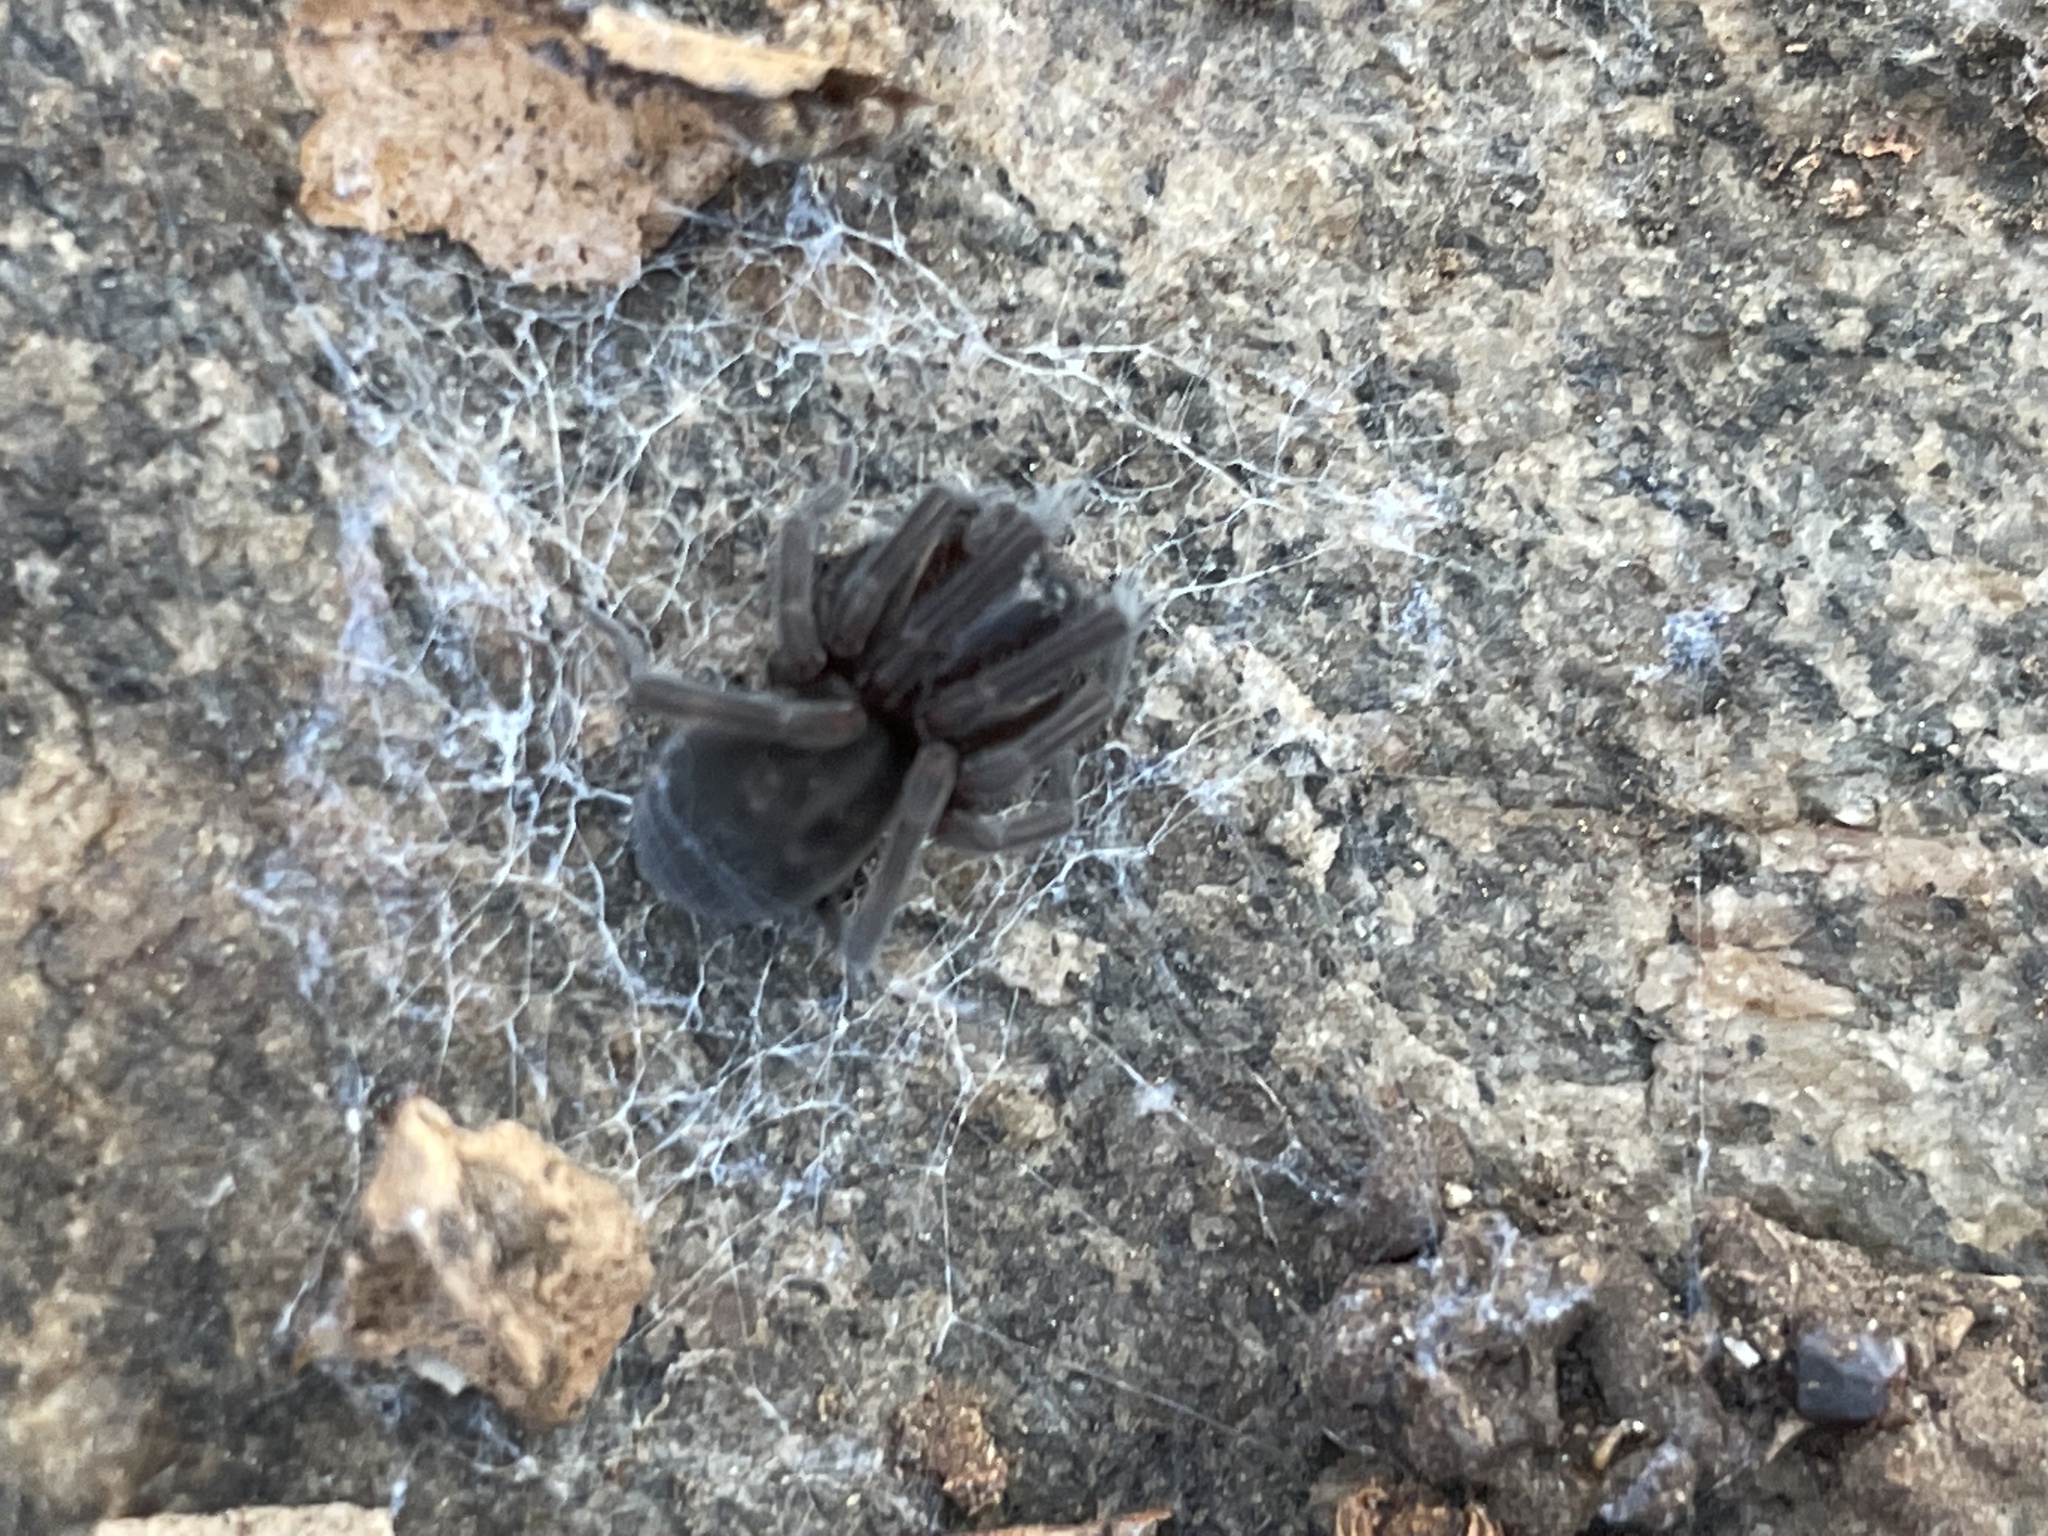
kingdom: Animalia
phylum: Arthropoda
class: Arachnida
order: Araneae
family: Amaurobiidae
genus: Amaurobius
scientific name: Amaurobius ferox
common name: Black laceweaver
